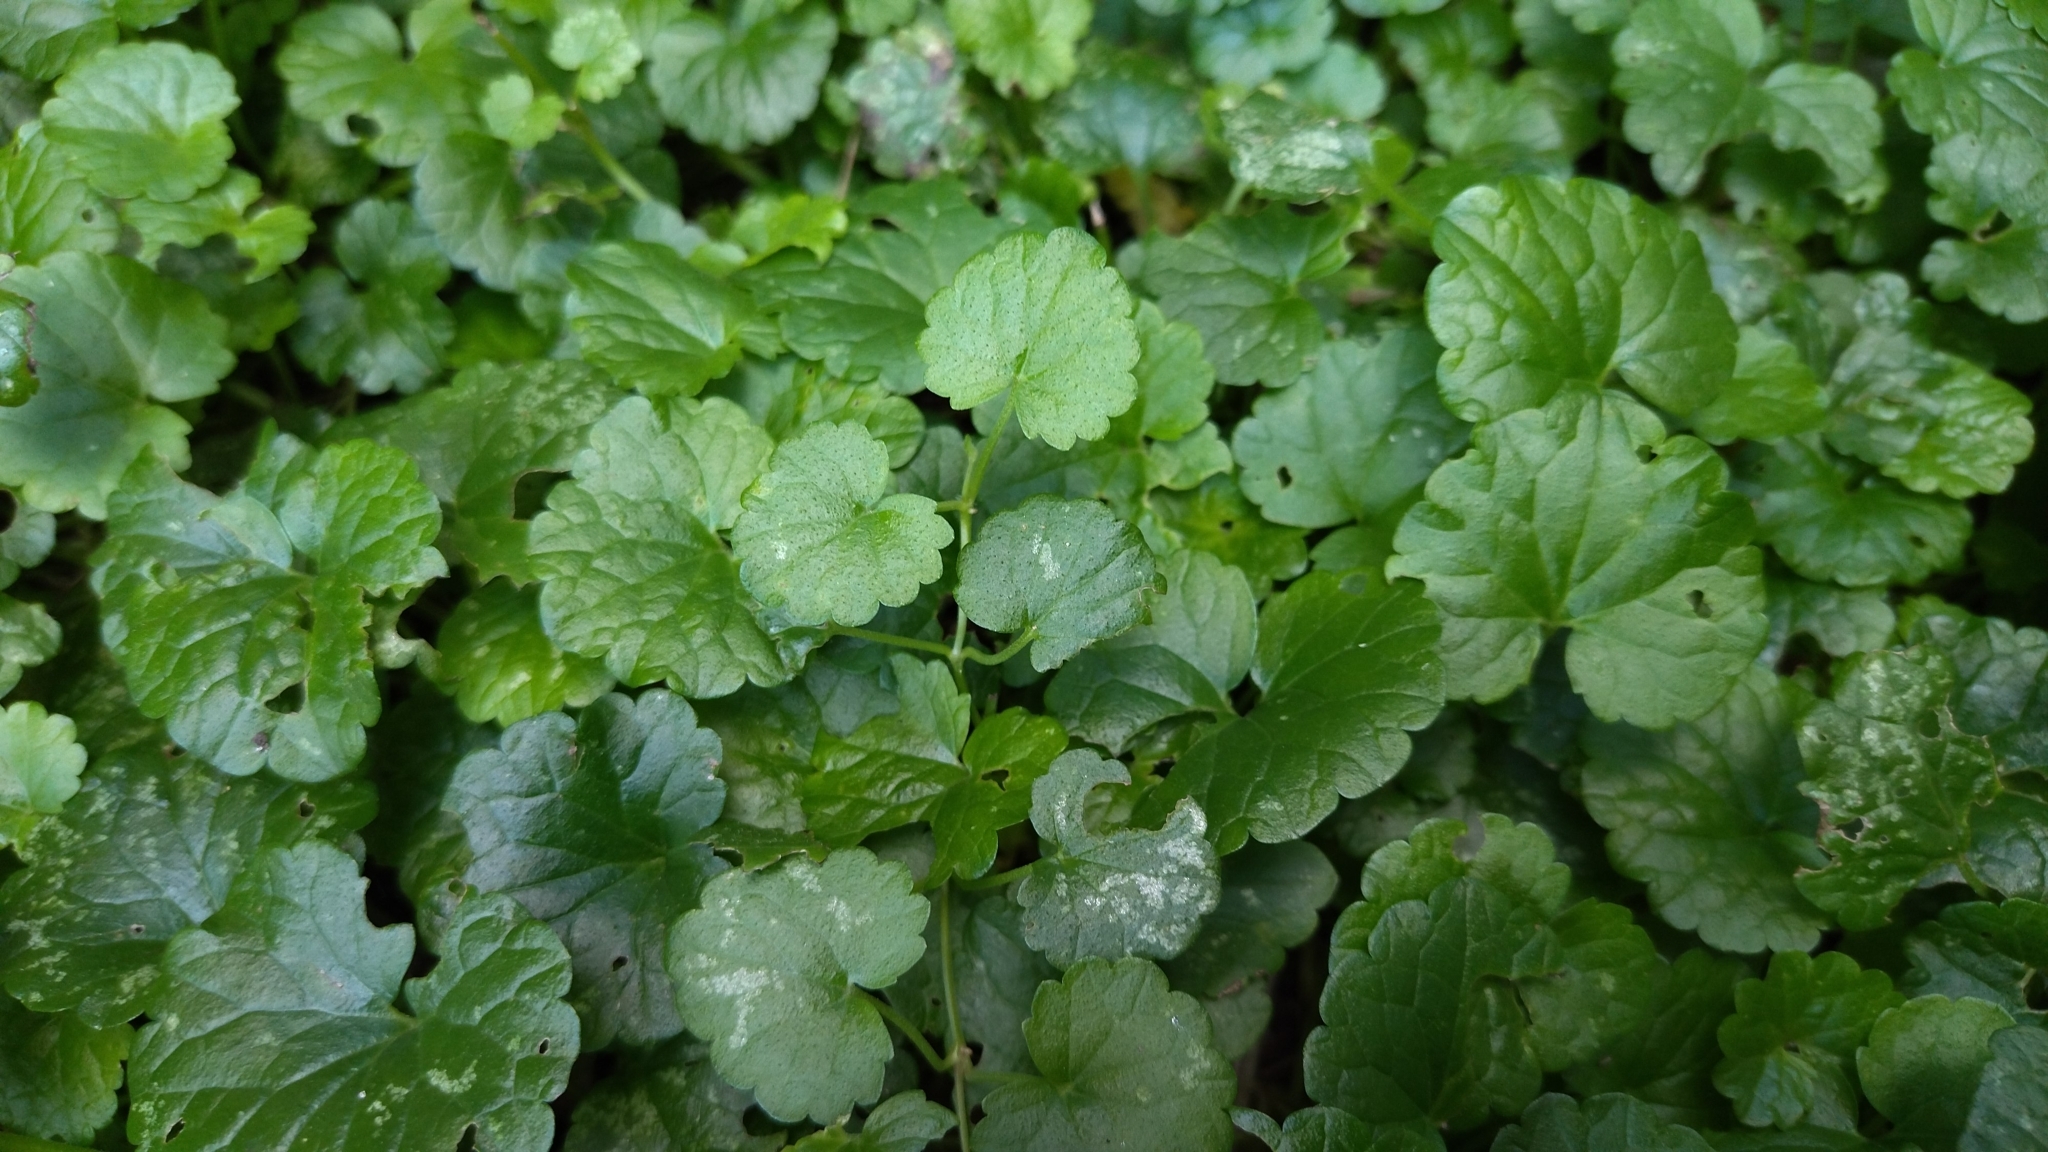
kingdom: Plantae
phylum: Tracheophyta
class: Magnoliopsida
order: Lamiales
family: Lamiaceae
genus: Glechoma
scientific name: Glechoma hederacea
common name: Ground ivy
